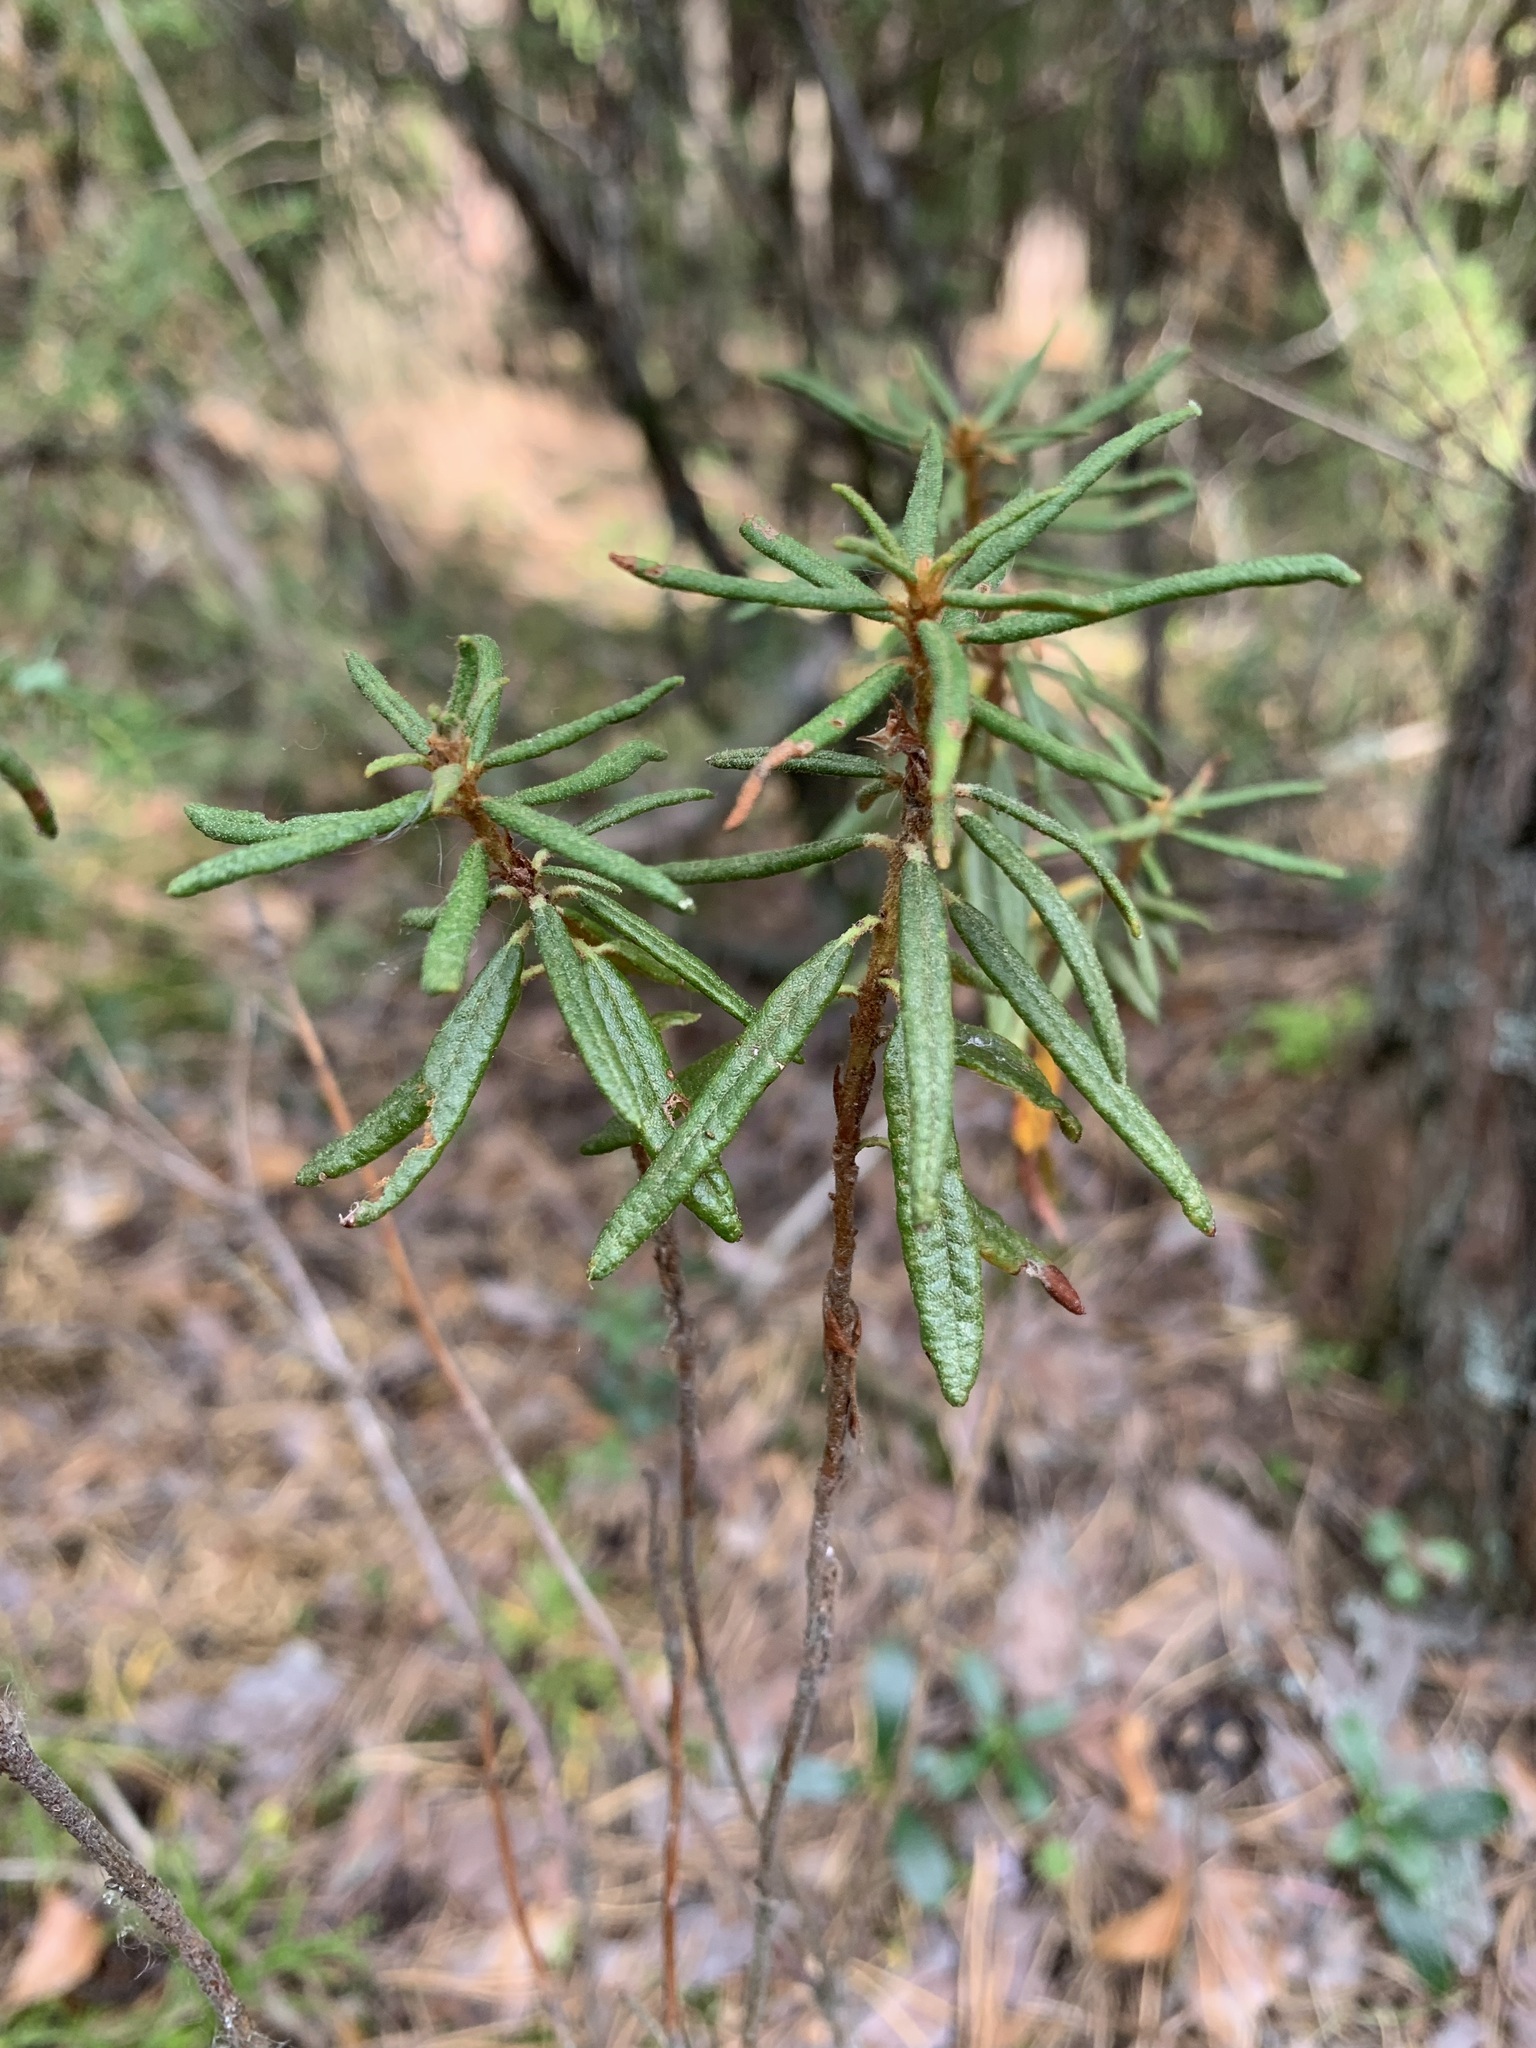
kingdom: Plantae
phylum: Tracheophyta
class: Magnoliopsida
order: Ericales
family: Ericaceae
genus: Rhododendron
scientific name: Rhododendron tomentosum
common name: Marsh labrador tea
